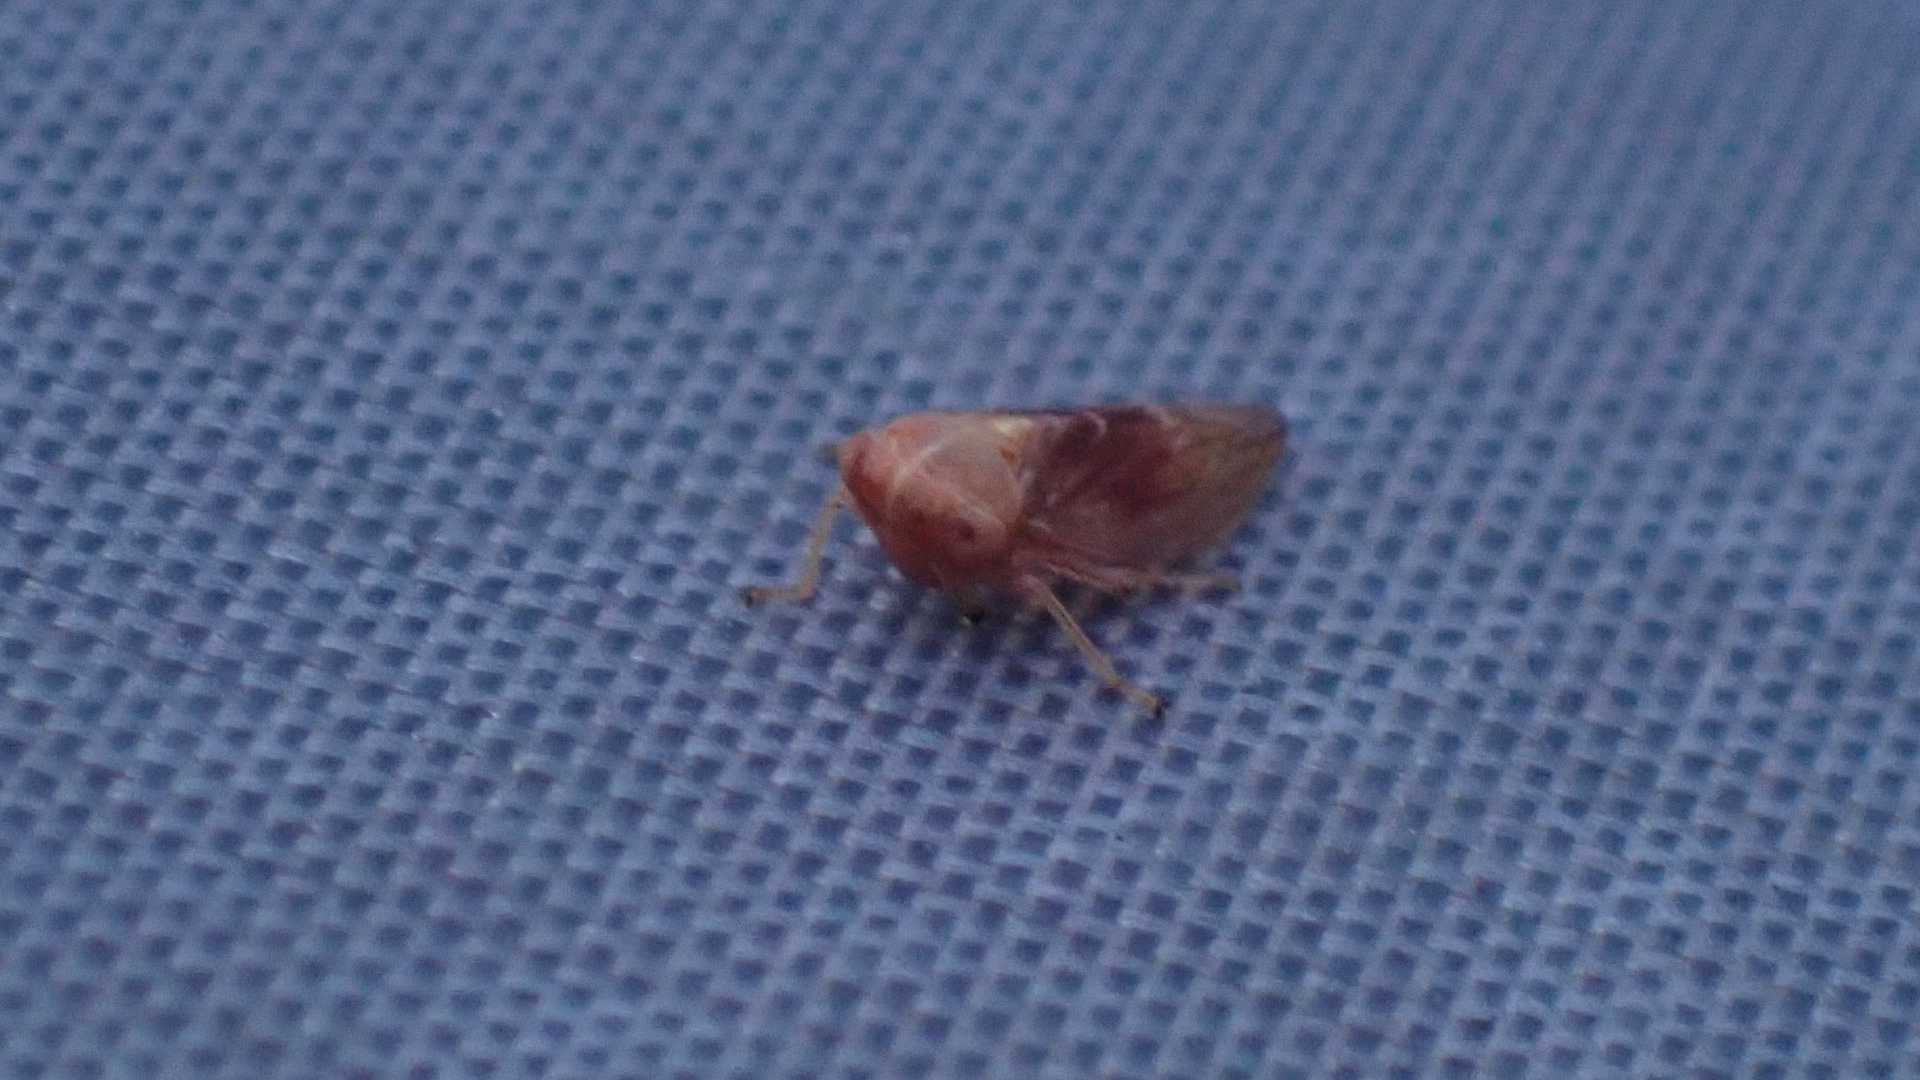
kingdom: Animalia
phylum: Arthropoda
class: Insecta
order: Hemiptera
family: Cicadellidae
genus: Tremulicerus
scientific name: Tremulicerus fulgidus
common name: Leafhopper
